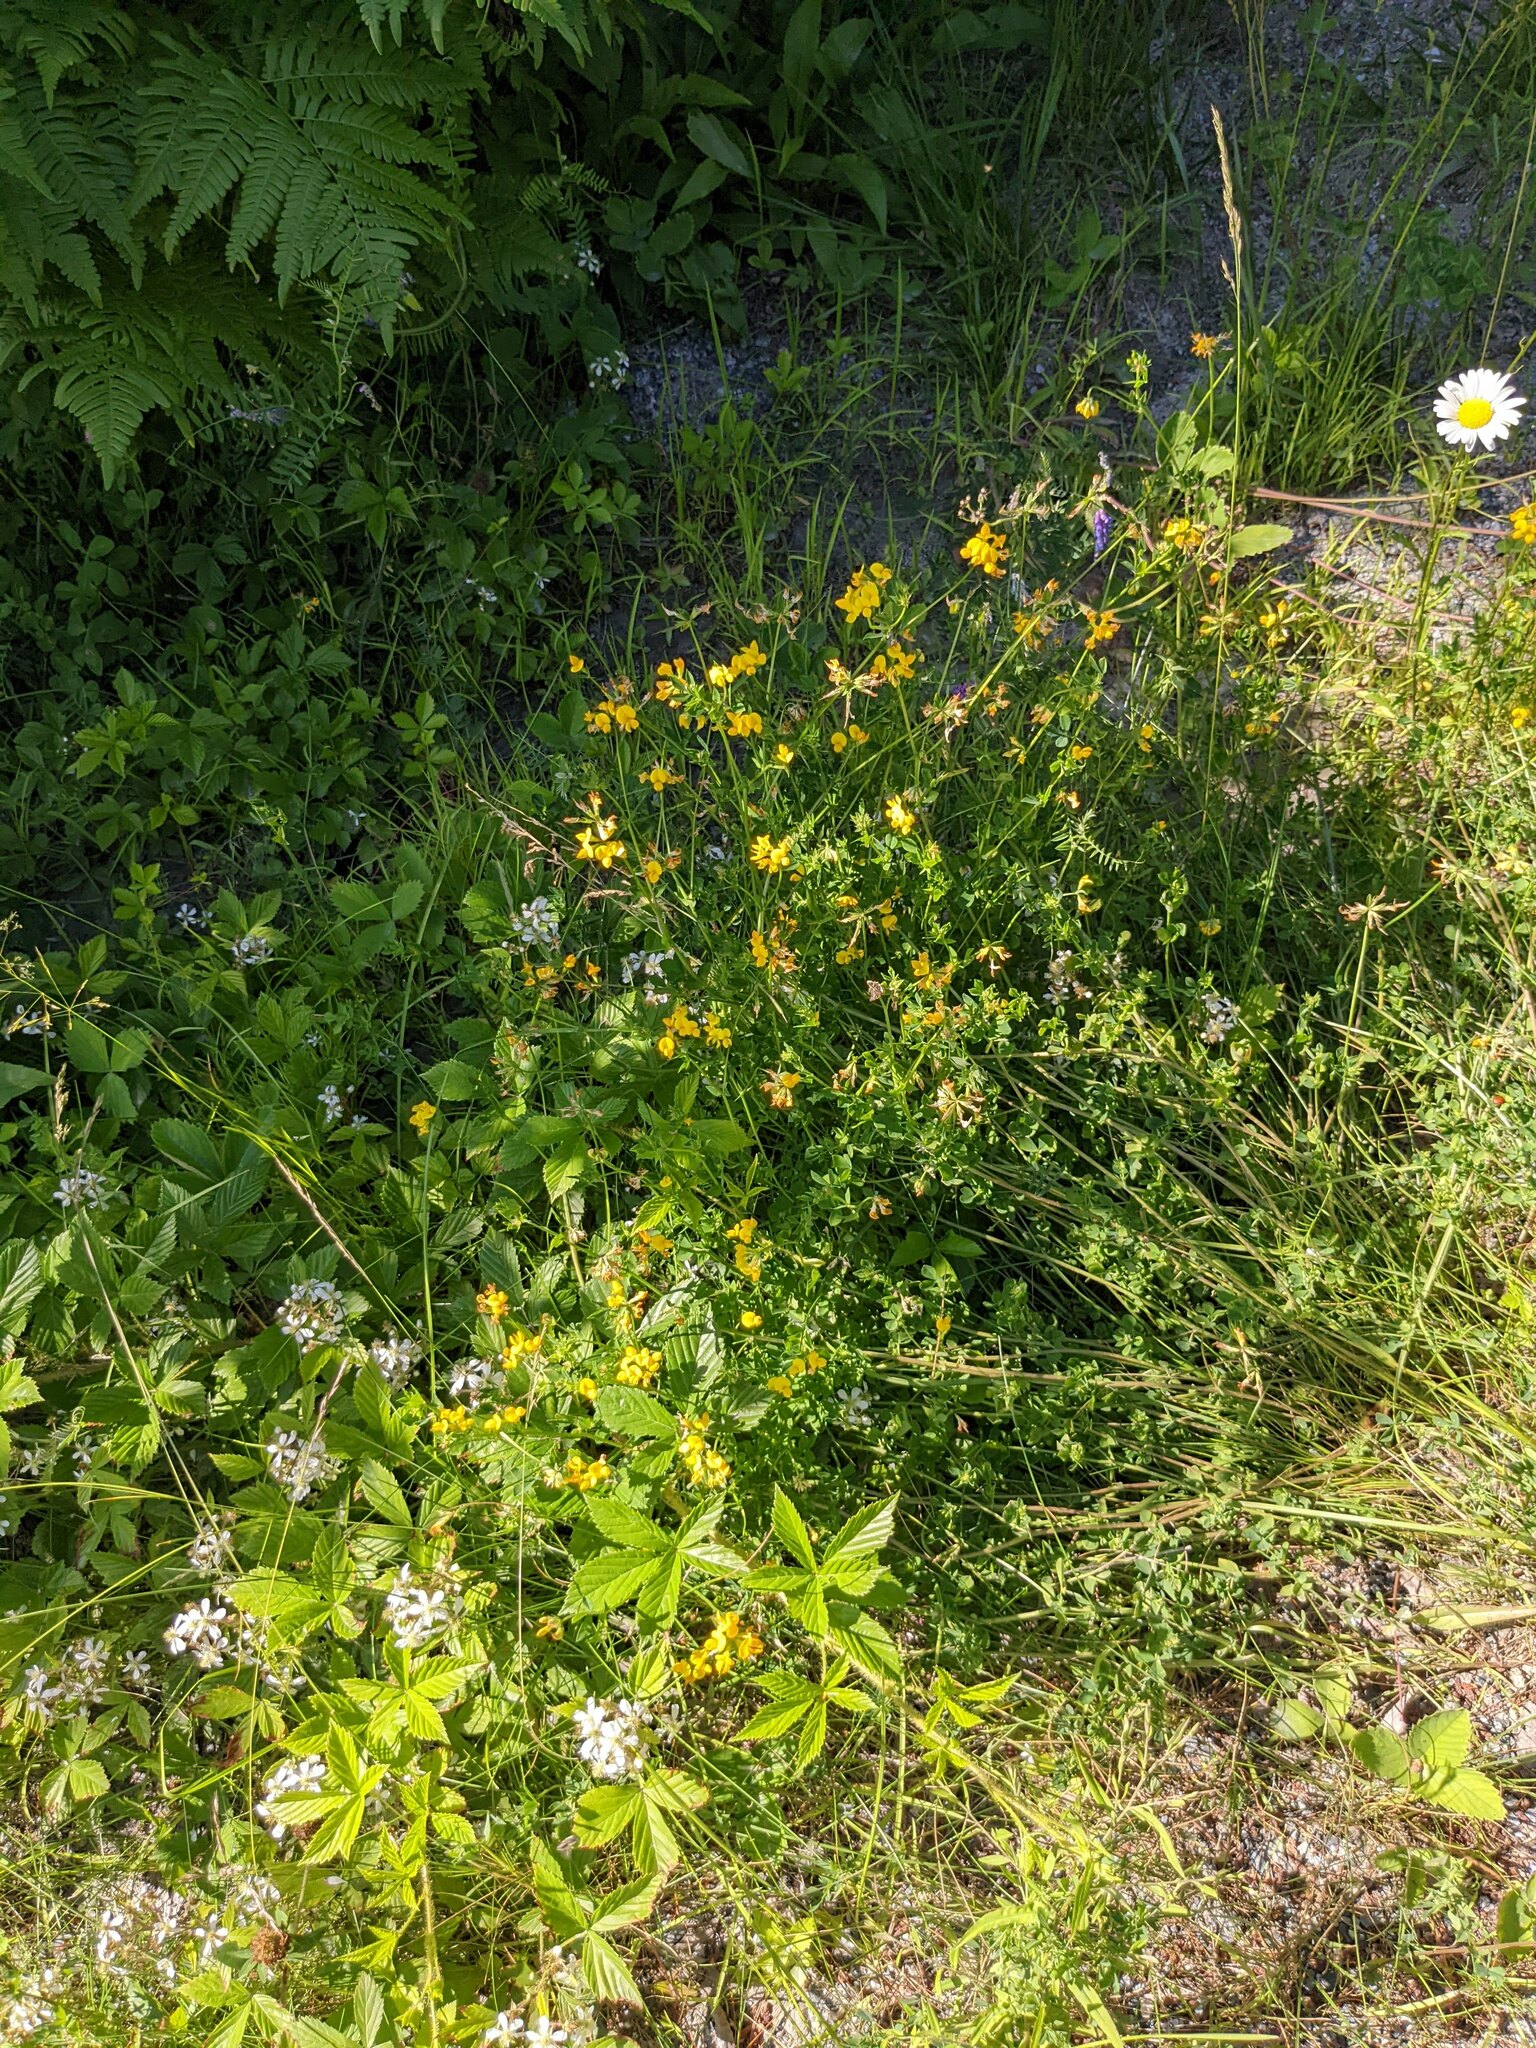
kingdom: Plantae
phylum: Tracheophyta
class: Magnoliopsida
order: Fabales
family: Fabaceae
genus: Lotus
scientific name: Lotus corniculatus
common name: Common bird's-foot-trefoil
